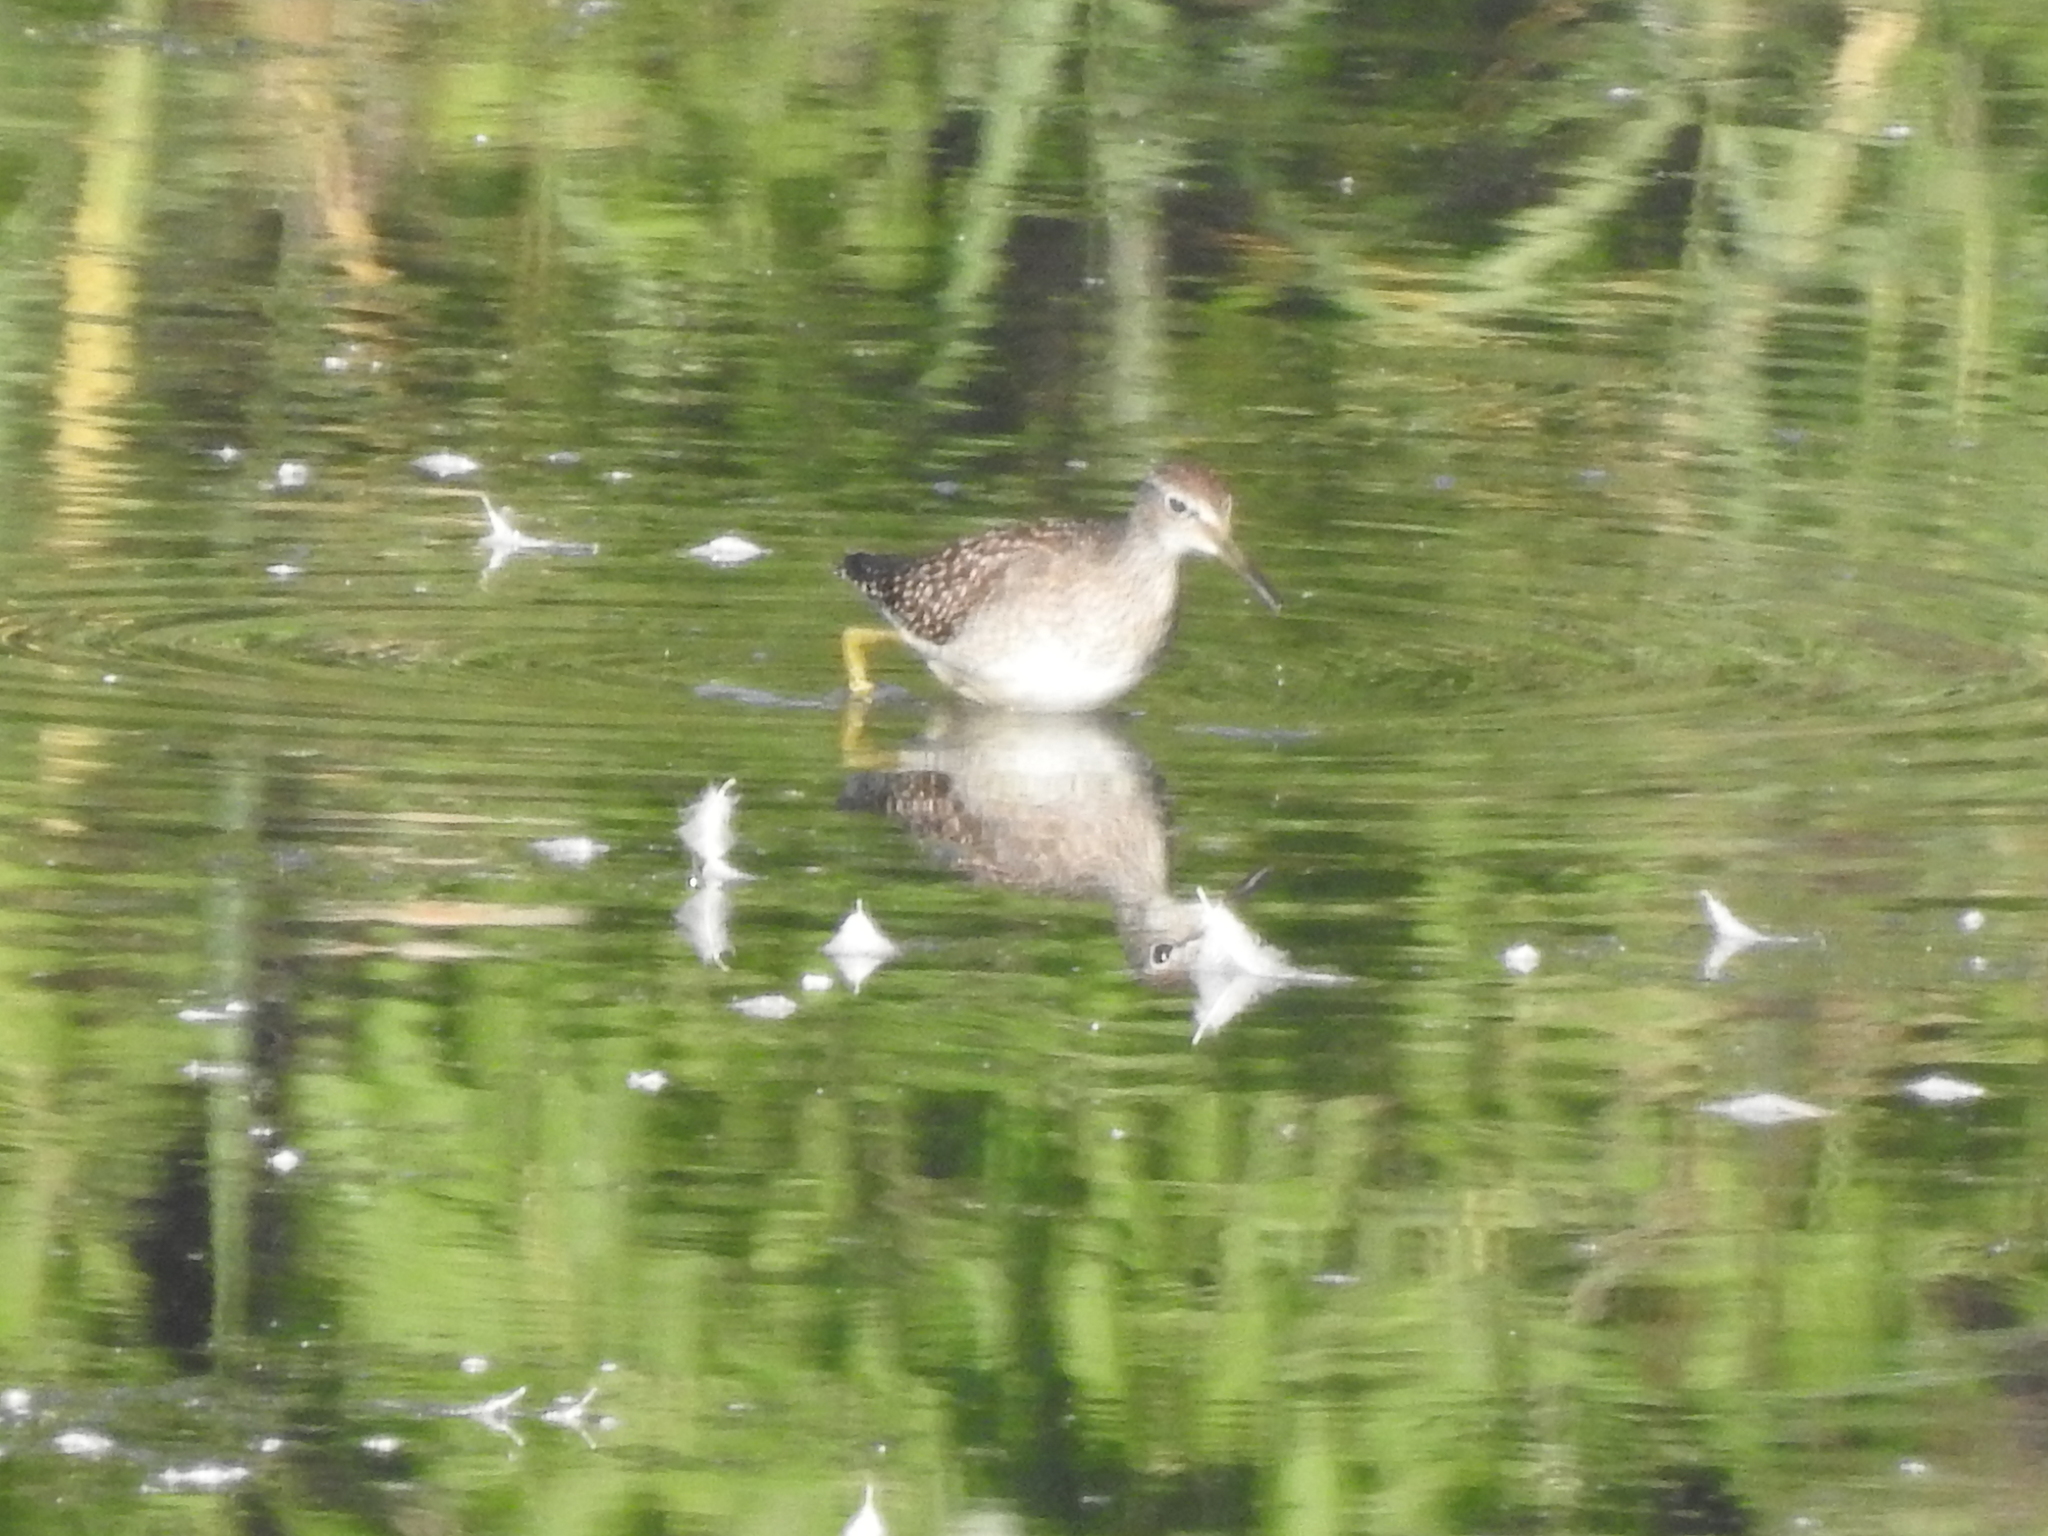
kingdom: Animalia
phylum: Chordata
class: Aves
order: Charadriiformes
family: Scolopacidae
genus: Tringa
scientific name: Tringa glareola
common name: Wood sandpiper
